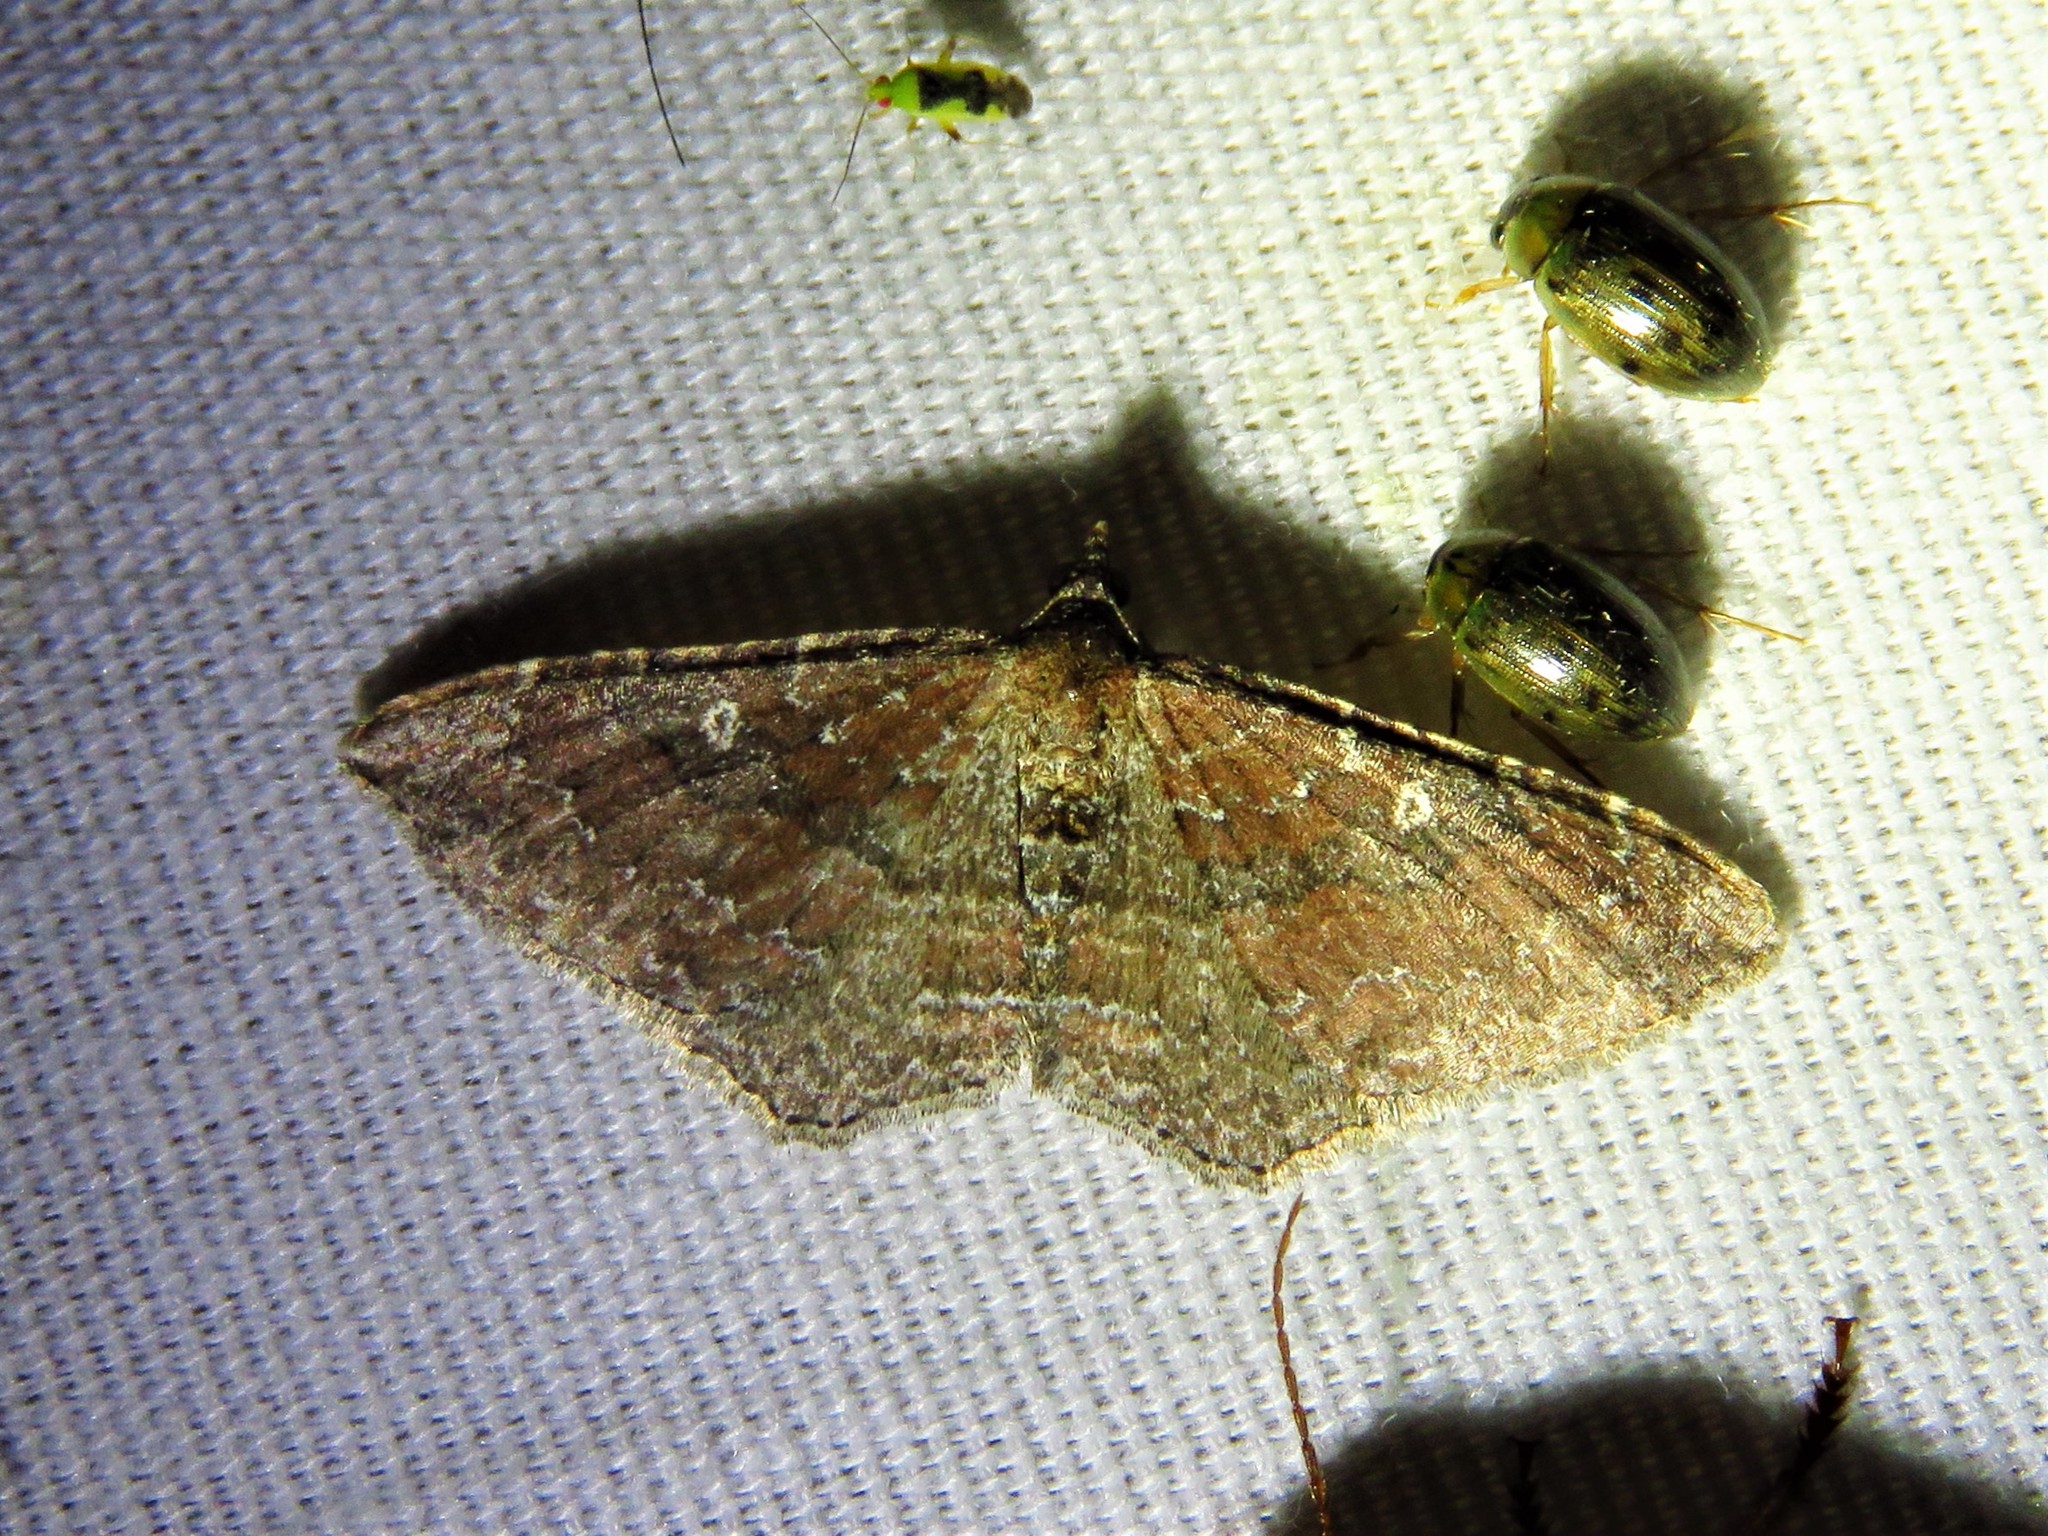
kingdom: Animalia
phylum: Arthropoda
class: Insecta
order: Lepidoptera
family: Geometridae
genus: Orthonama
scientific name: Orthonama obstipata
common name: The gem
